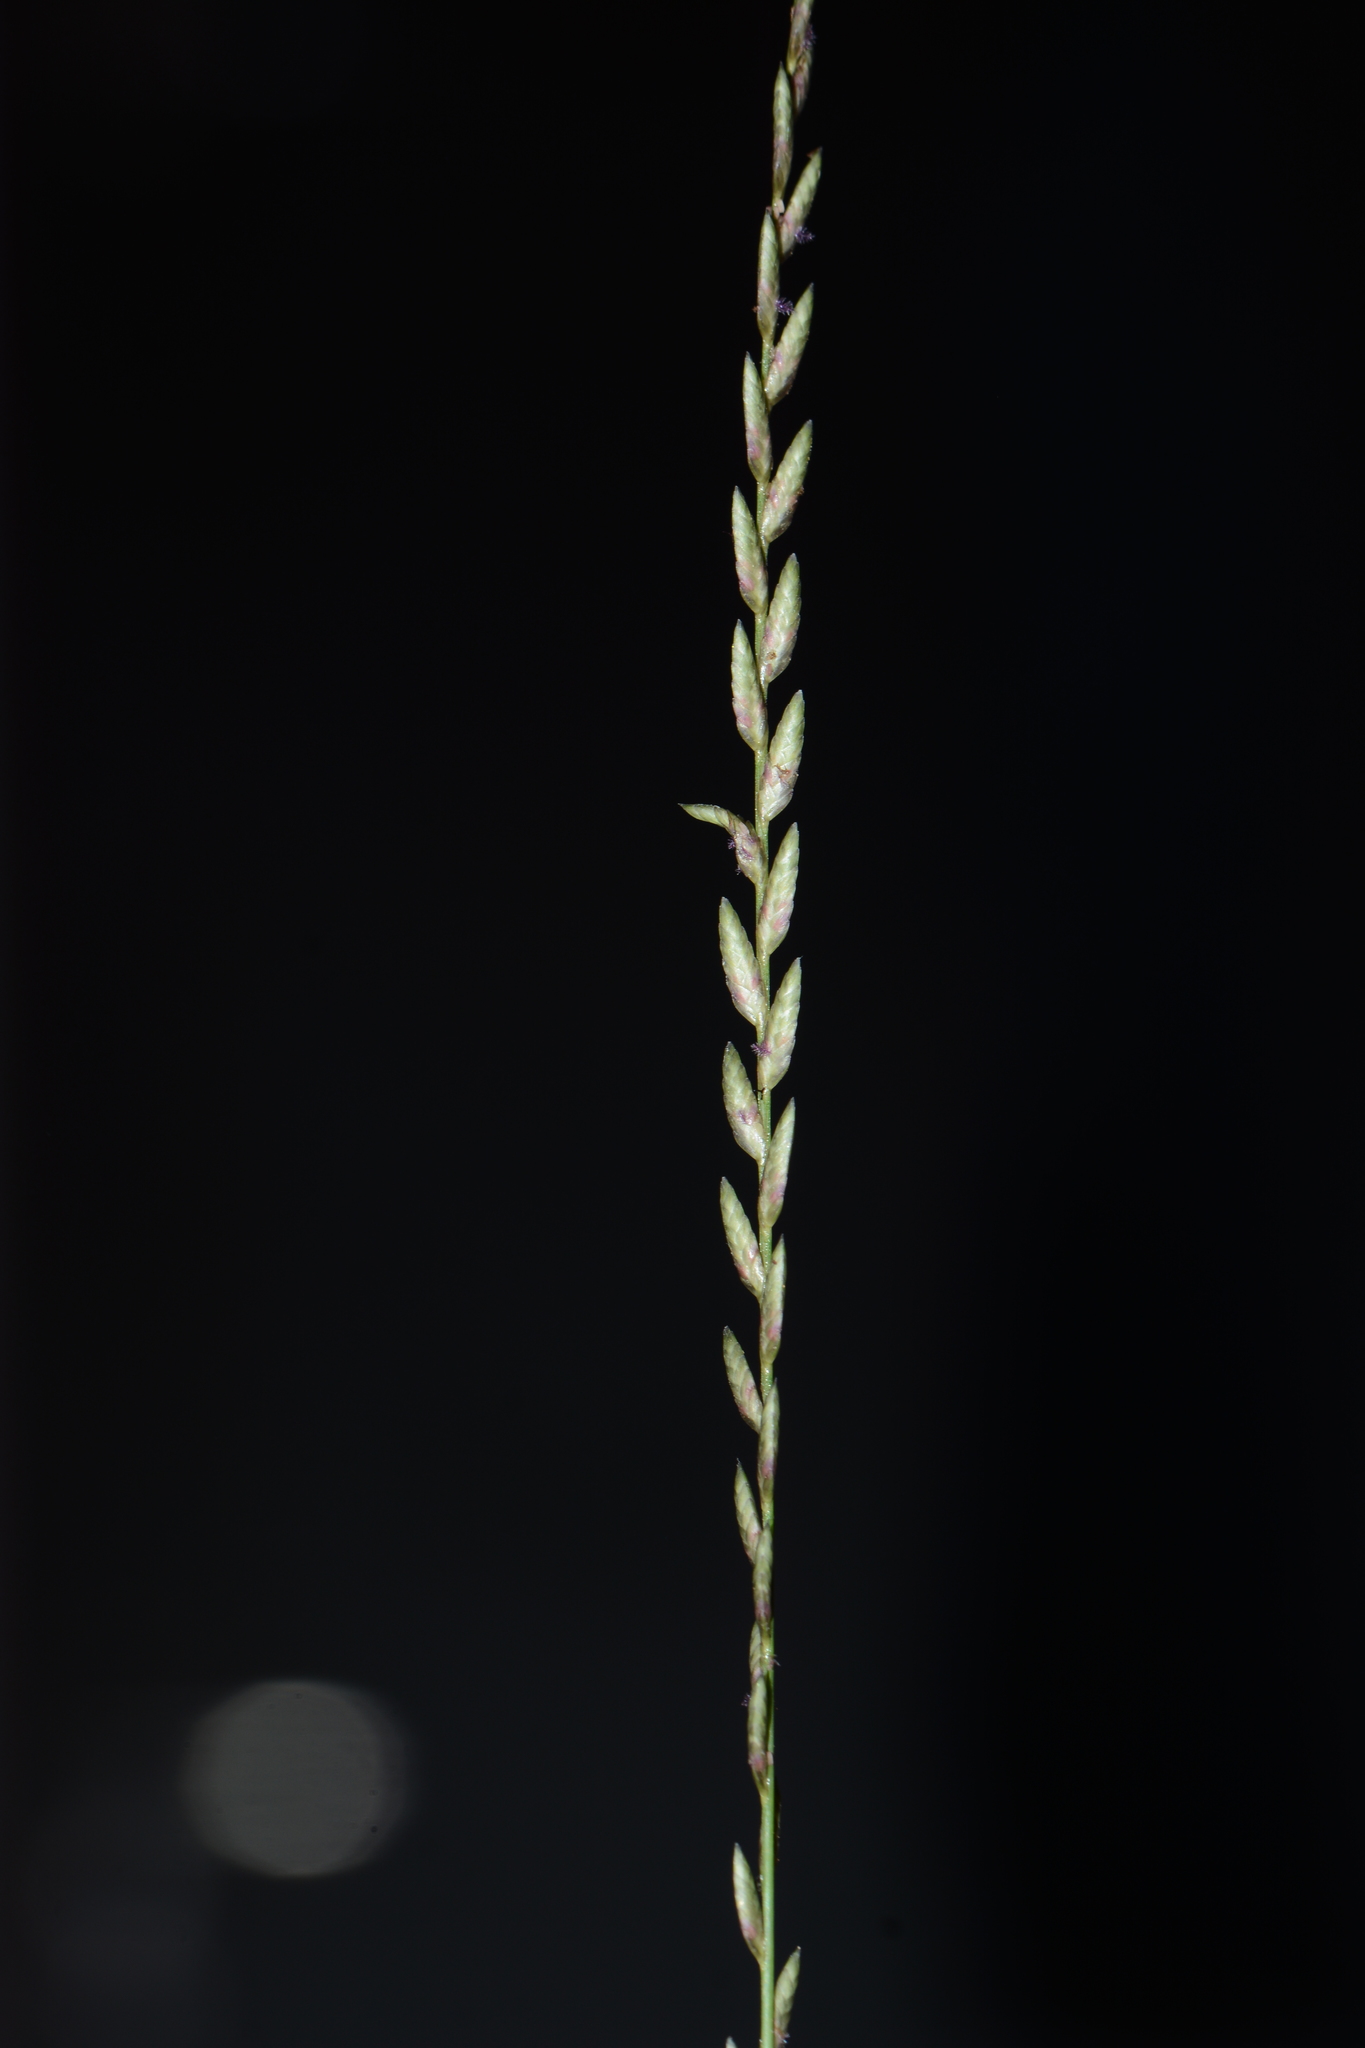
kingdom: Plantae
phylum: Tracheophyta
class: Liliopsida
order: Poales
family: Poaceae
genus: Eragrostiella
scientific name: Eragrostiella bifaria
